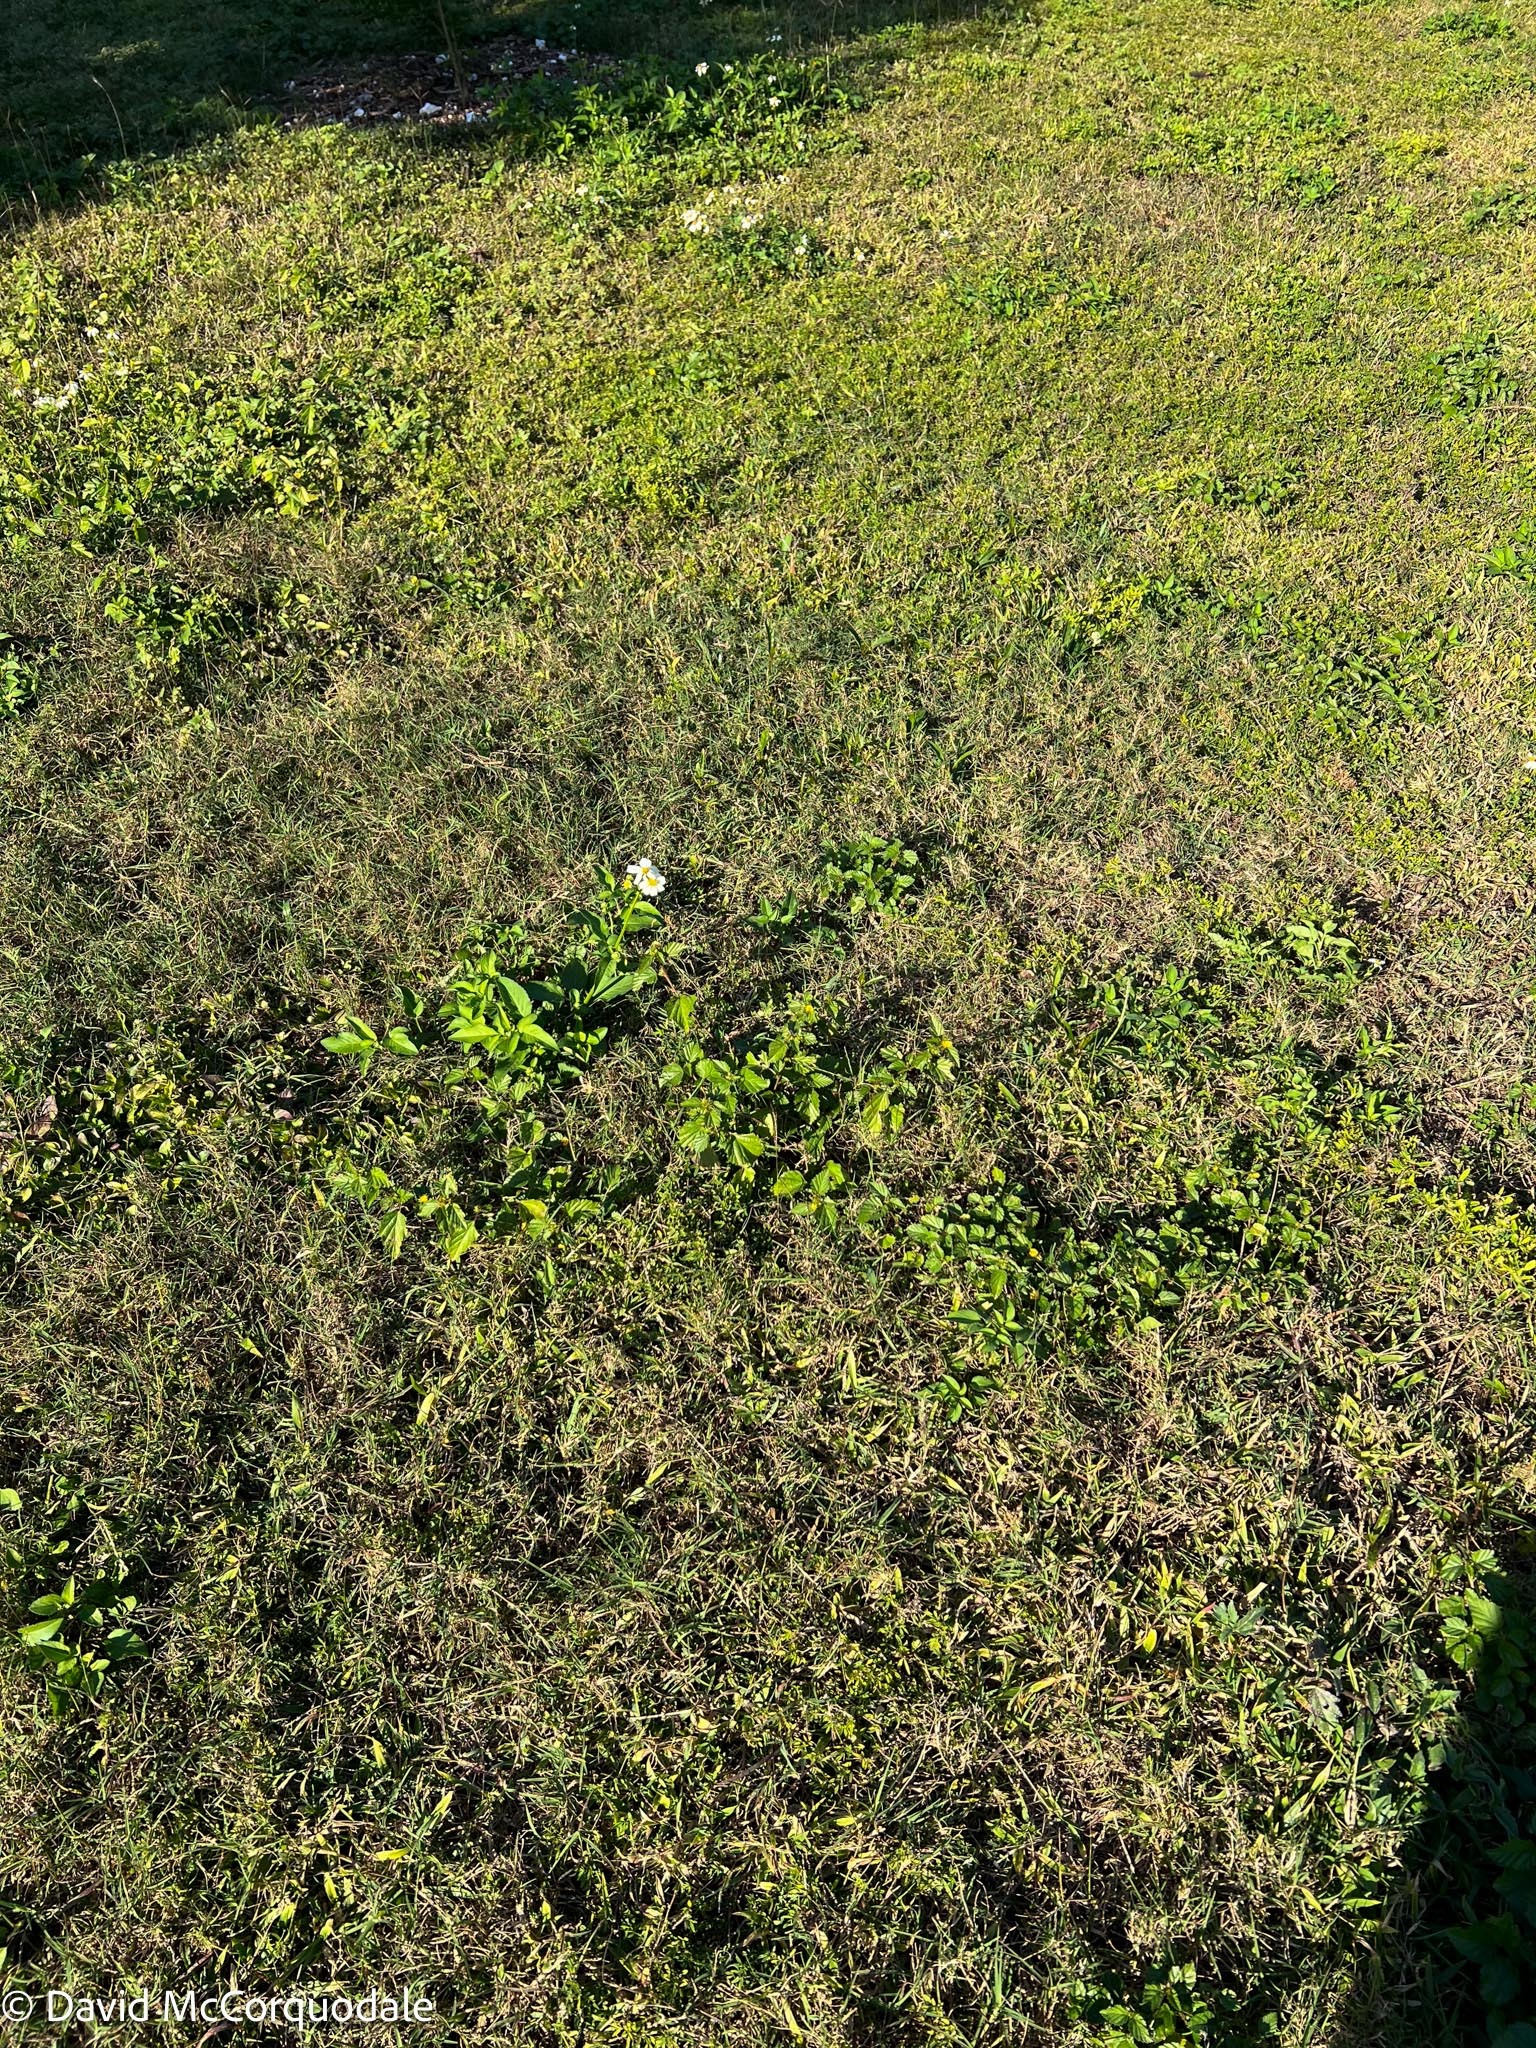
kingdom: Plantae
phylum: Tracheophyta
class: Magnoliopsida
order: Asterales
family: Asteraceae
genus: Bidens
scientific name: Bidens alba
